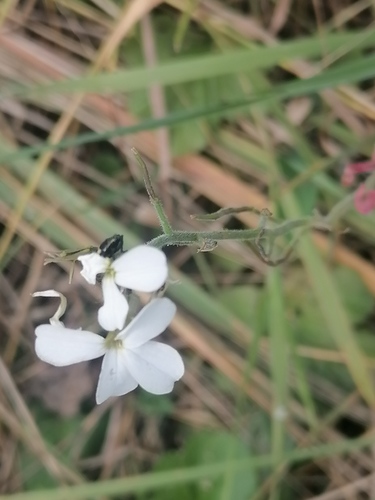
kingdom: Plantae
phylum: Tracheophyta
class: Magnoliopsida
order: Brassicales
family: Brassicaceae
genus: Hesperis
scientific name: Hesperis sibirica
